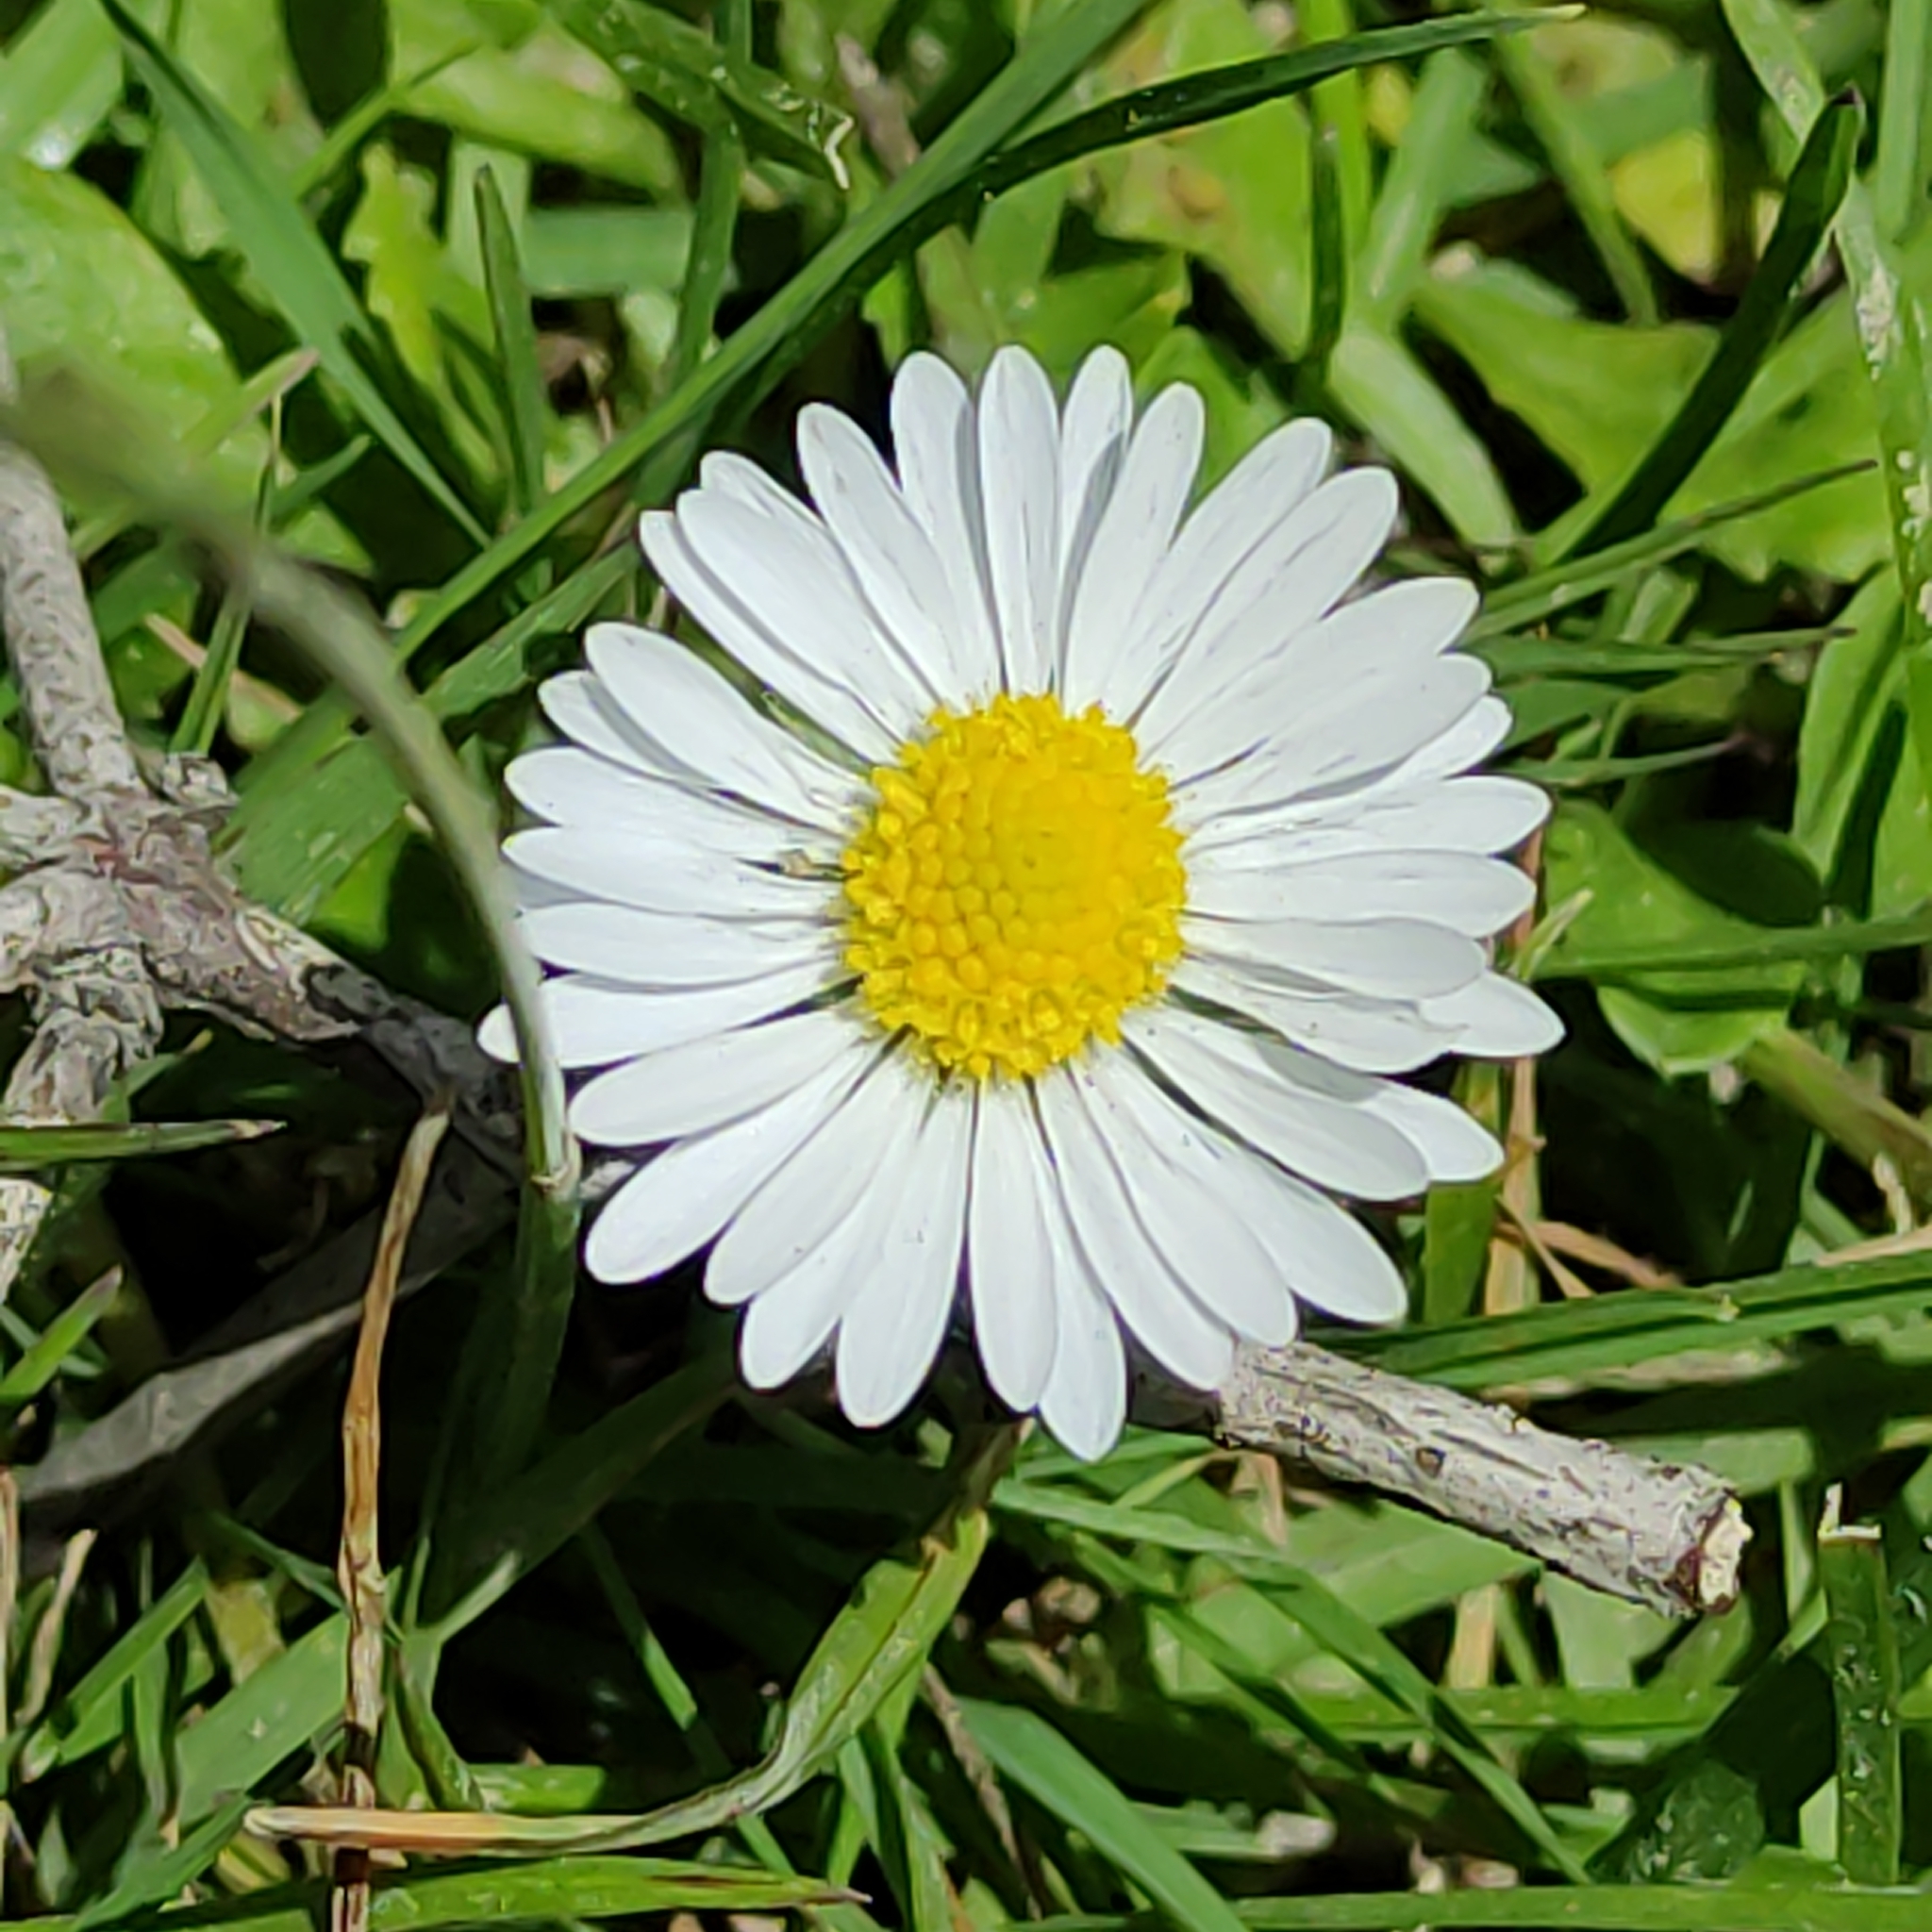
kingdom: Plantae
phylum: Tracheophyta
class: Magnoliopsida
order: Asterales
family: Asteraceae
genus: Bellis
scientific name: Bellis perennis
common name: Lawndaisy
